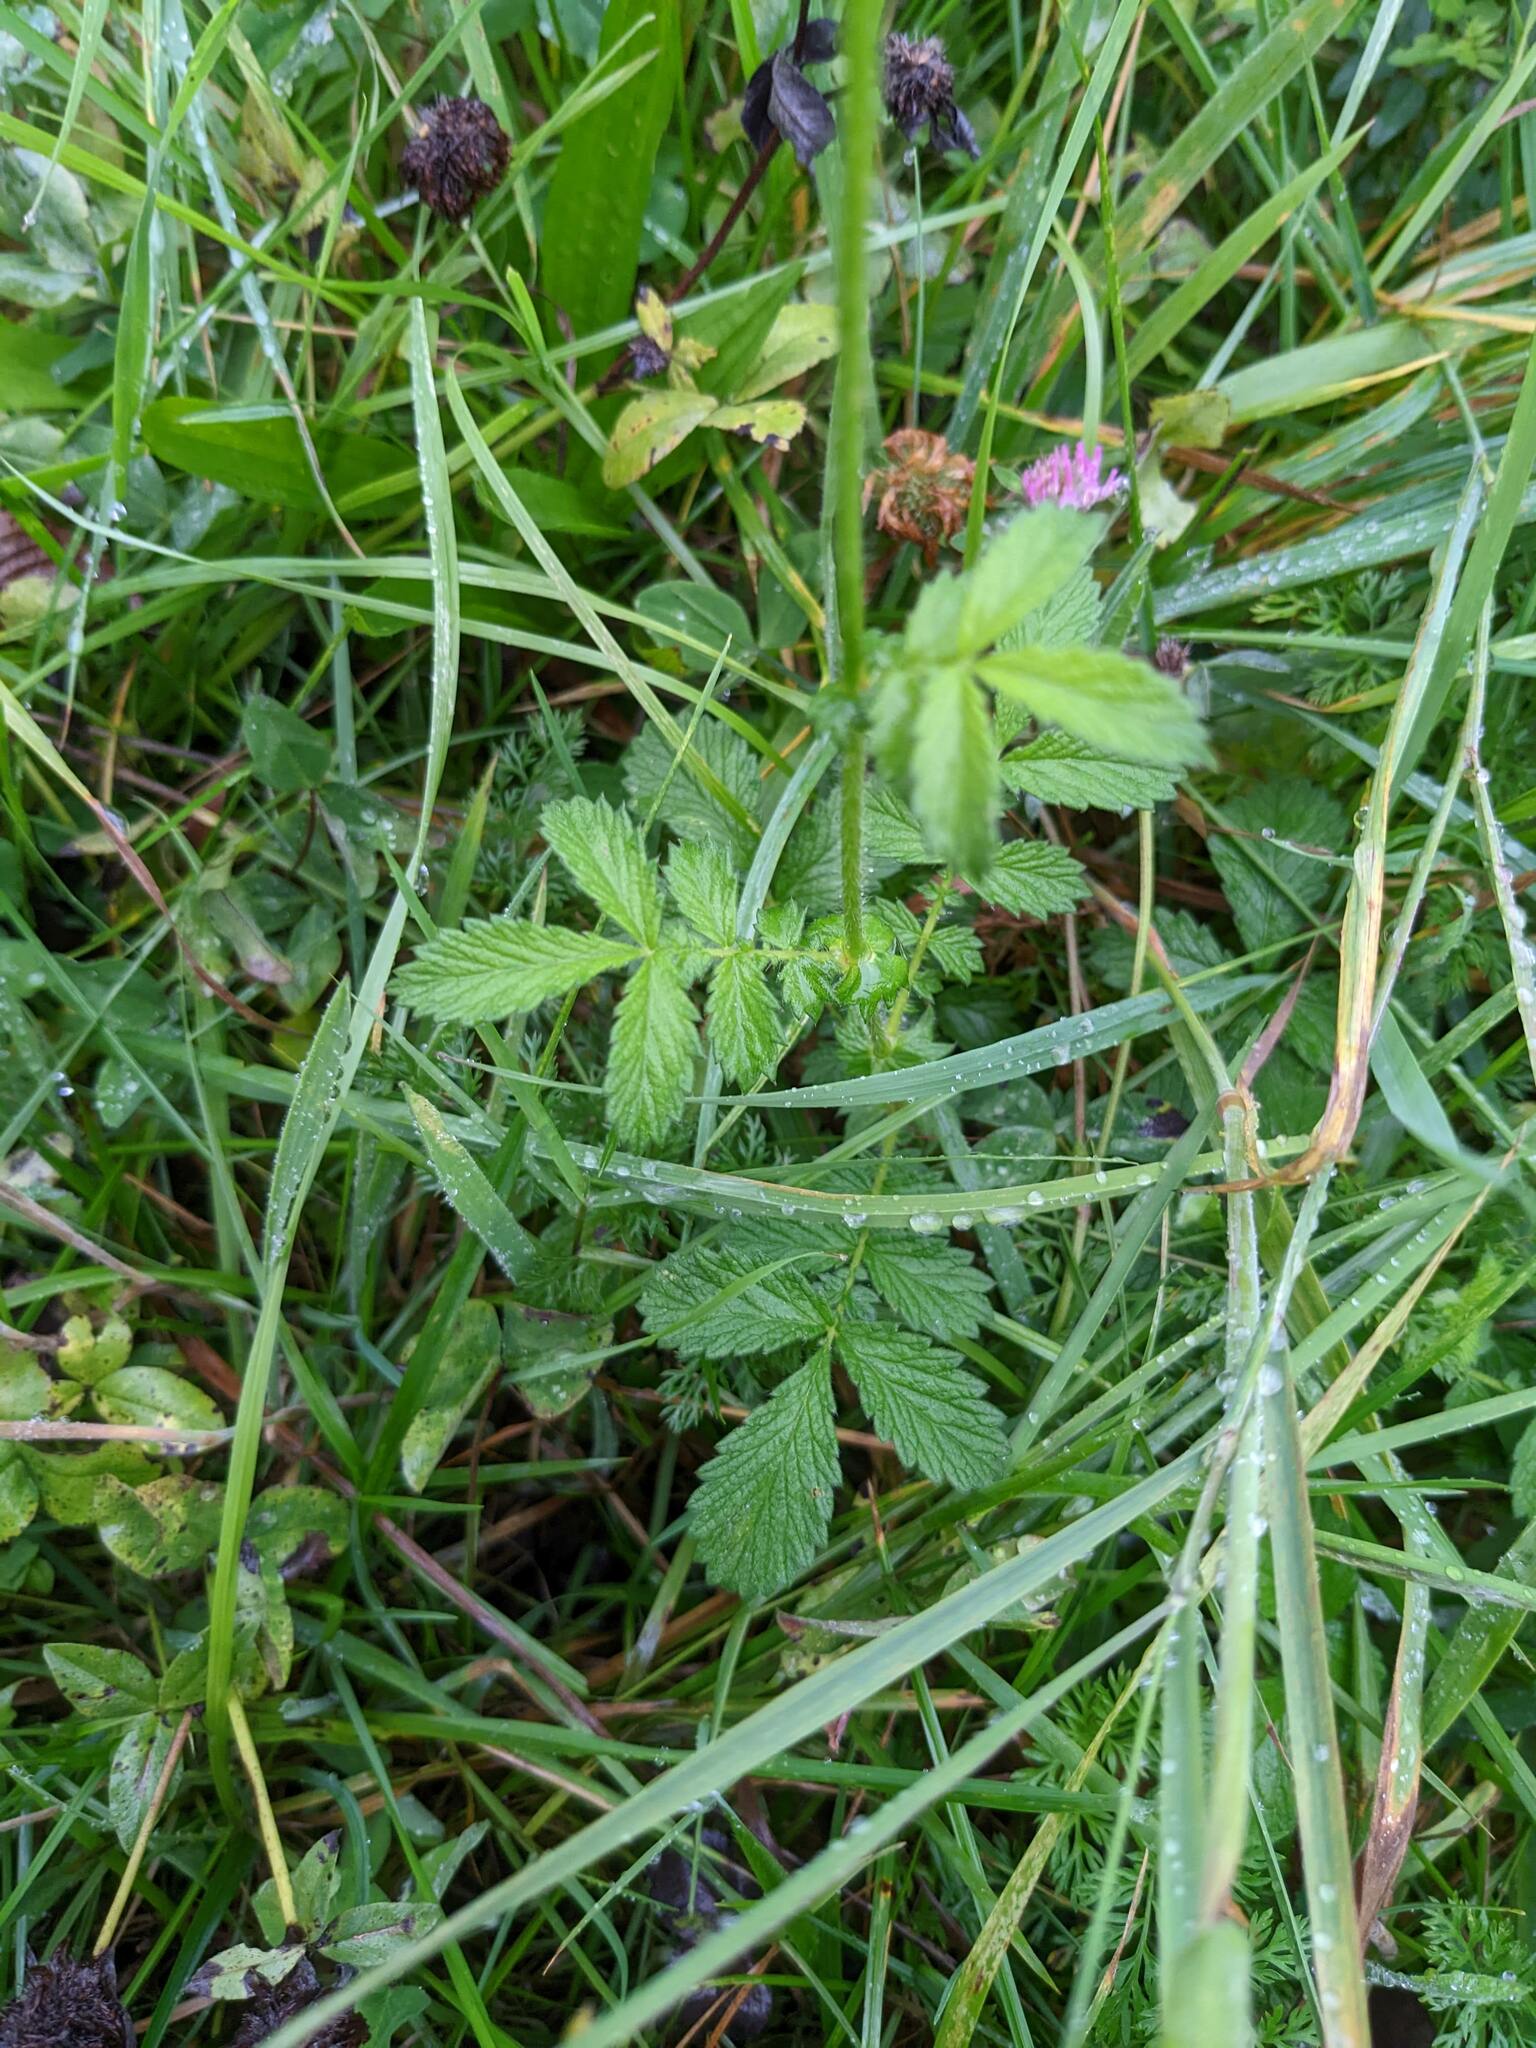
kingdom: Plantae
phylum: Tracheophyta
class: Magnoliopsida
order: Rosales
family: Rosaceae
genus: Agrimonia
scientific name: Agrimonia eupatoria
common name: Agrimony
